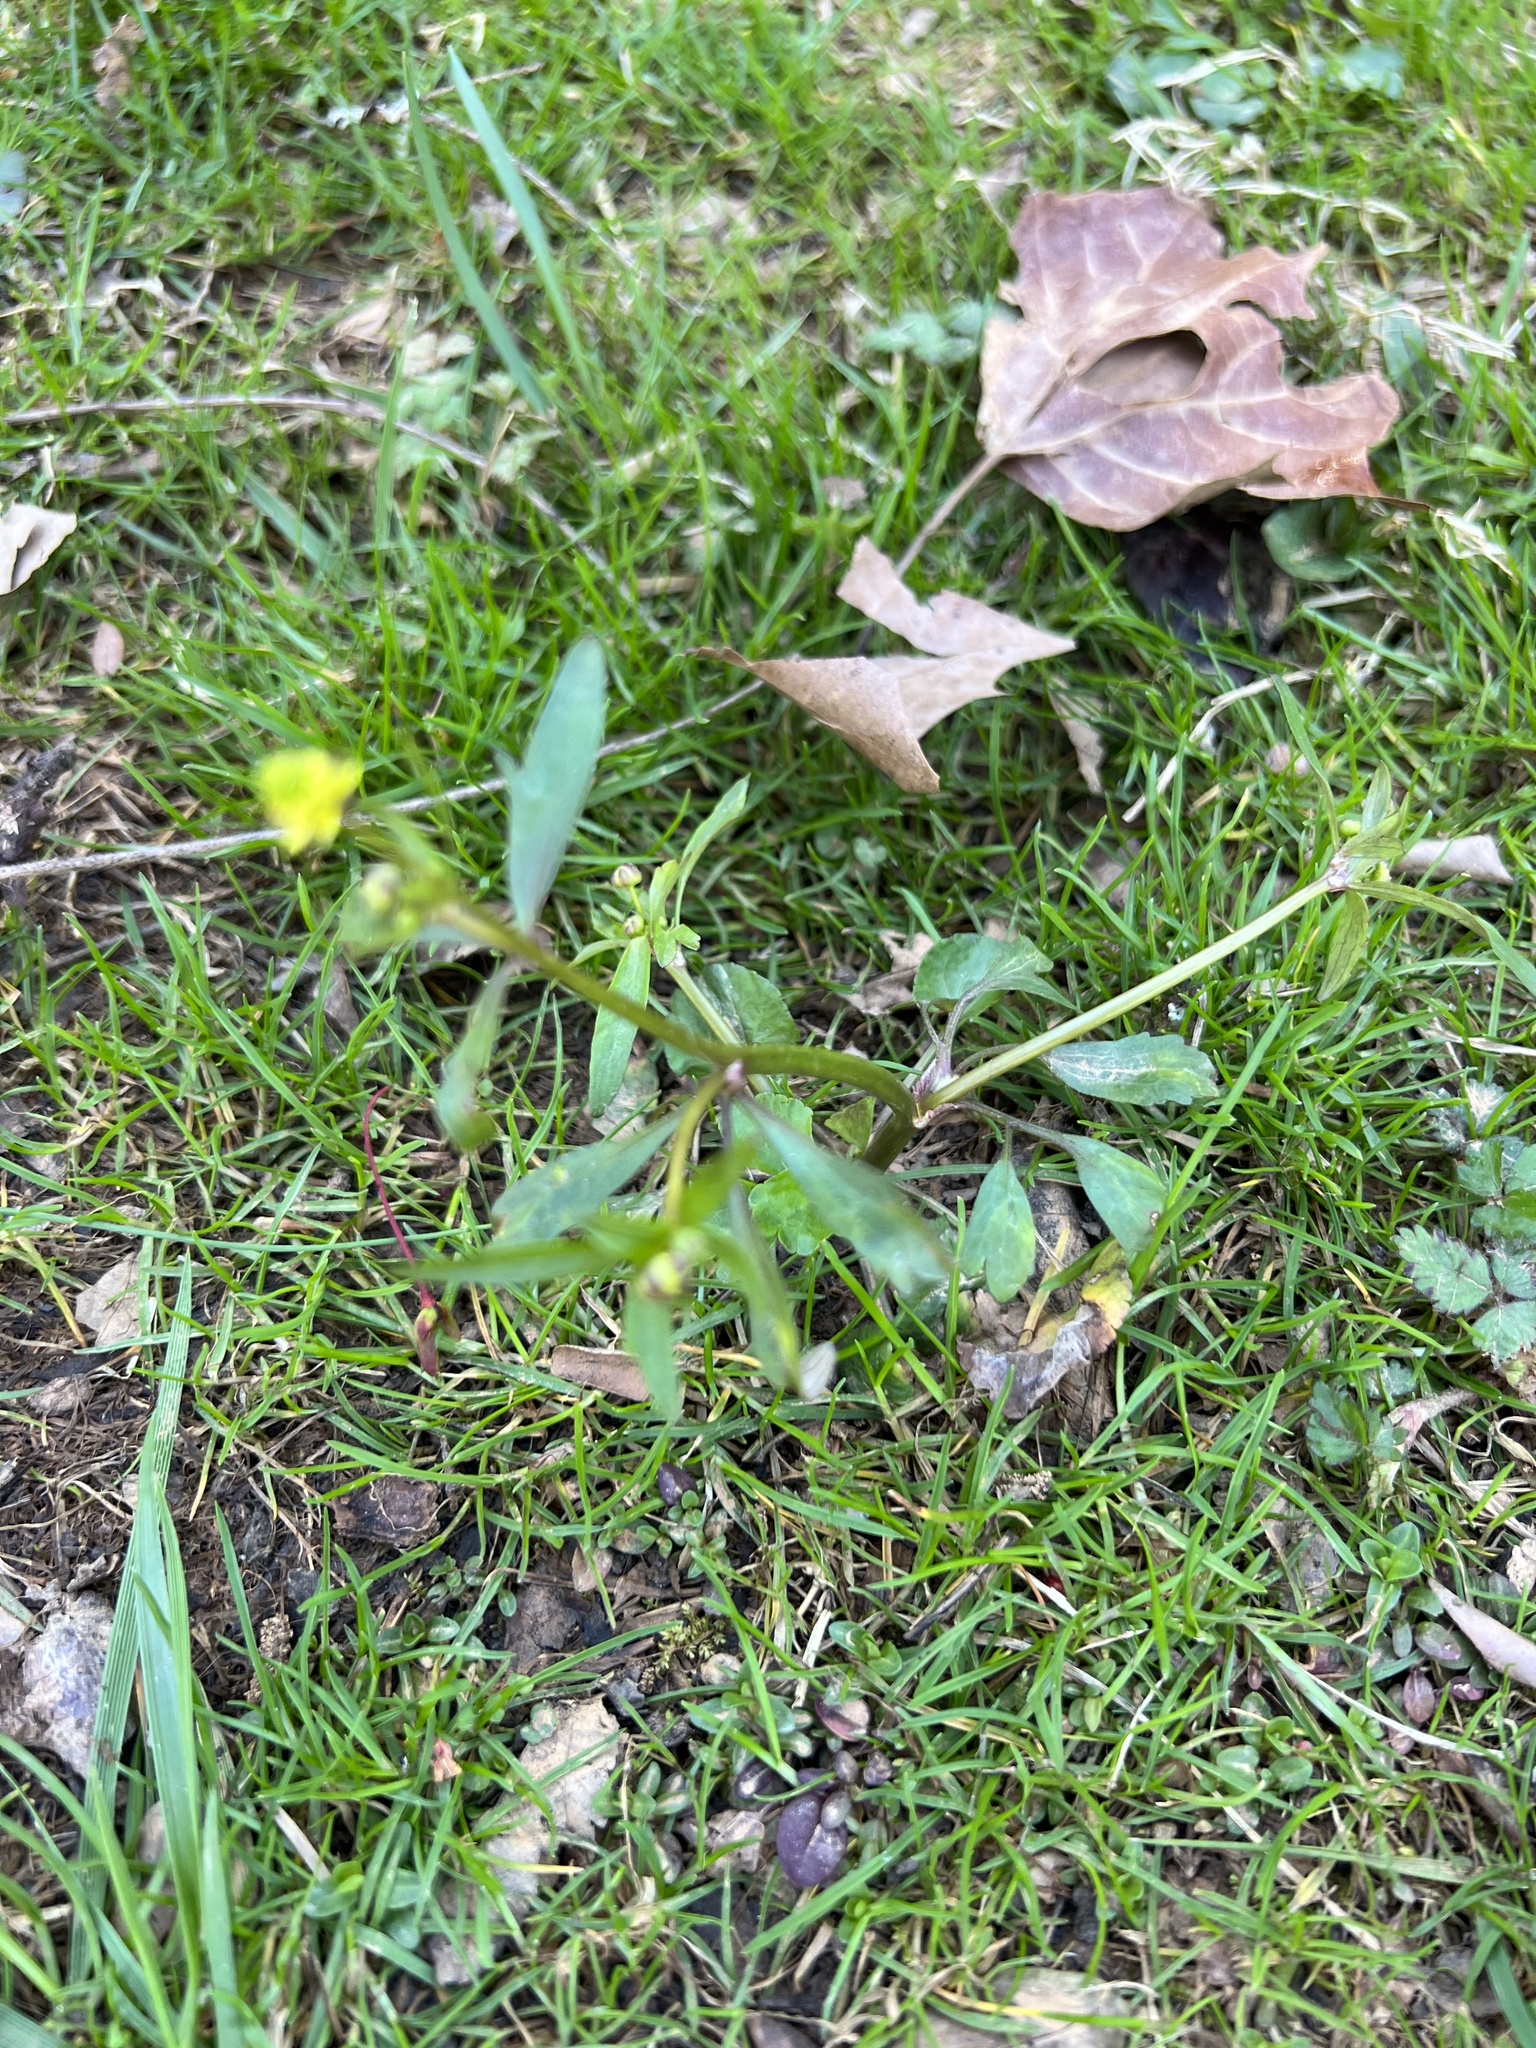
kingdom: Plantae
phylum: Tracheophyta
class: Magnoliopsida
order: Ranunculales
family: Ranunculaceae
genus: Ranunculus
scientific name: Ranunculus abortivus
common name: Early wood buttercup
